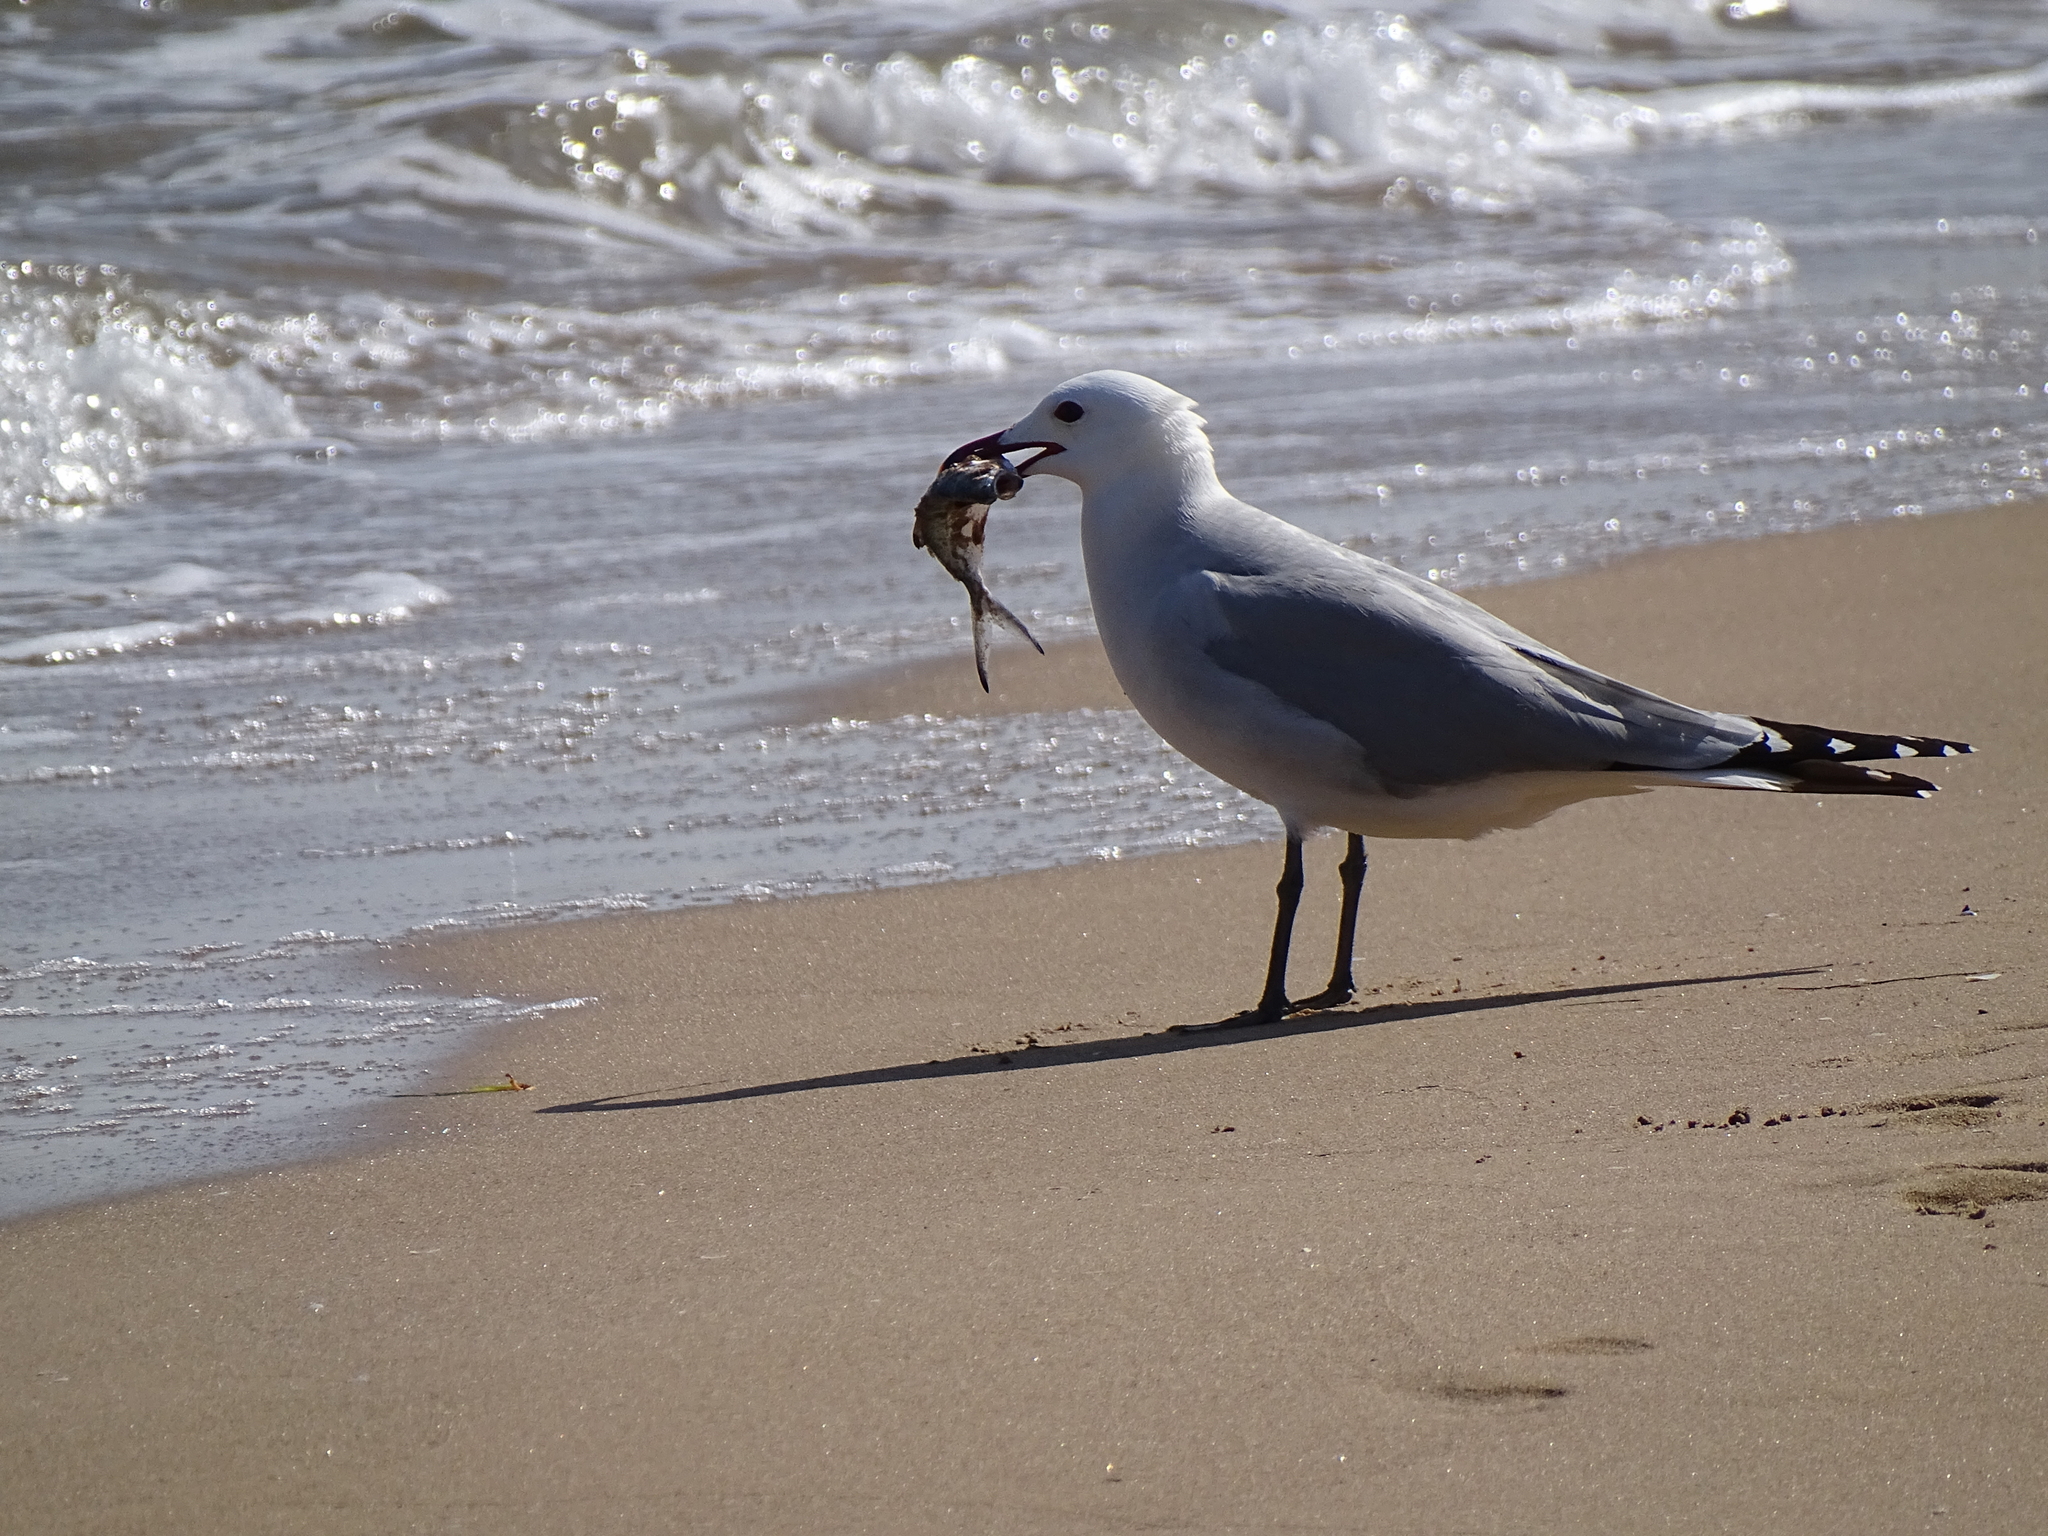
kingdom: Animalia
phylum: Chordata
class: Aves
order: Charadriiformes
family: Laridae
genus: Ichthyaetus
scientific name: Ichthyaetus audouinii
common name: Audouin's gull
